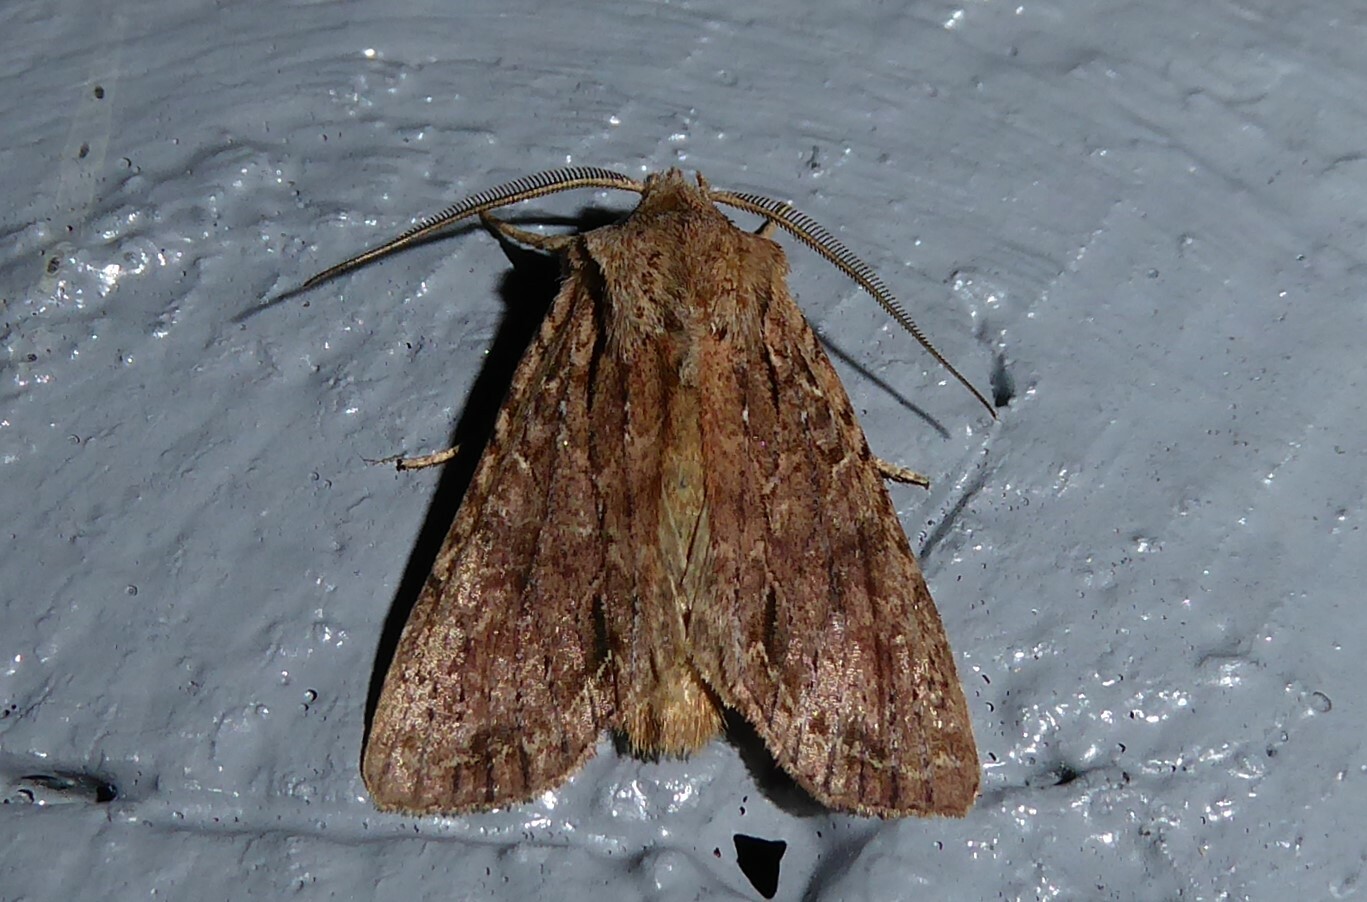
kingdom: Animalia
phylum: Arthropoda
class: Insecta
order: Lepidoptera
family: Noctuidae
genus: Ichneutica
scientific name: Ichneutica
